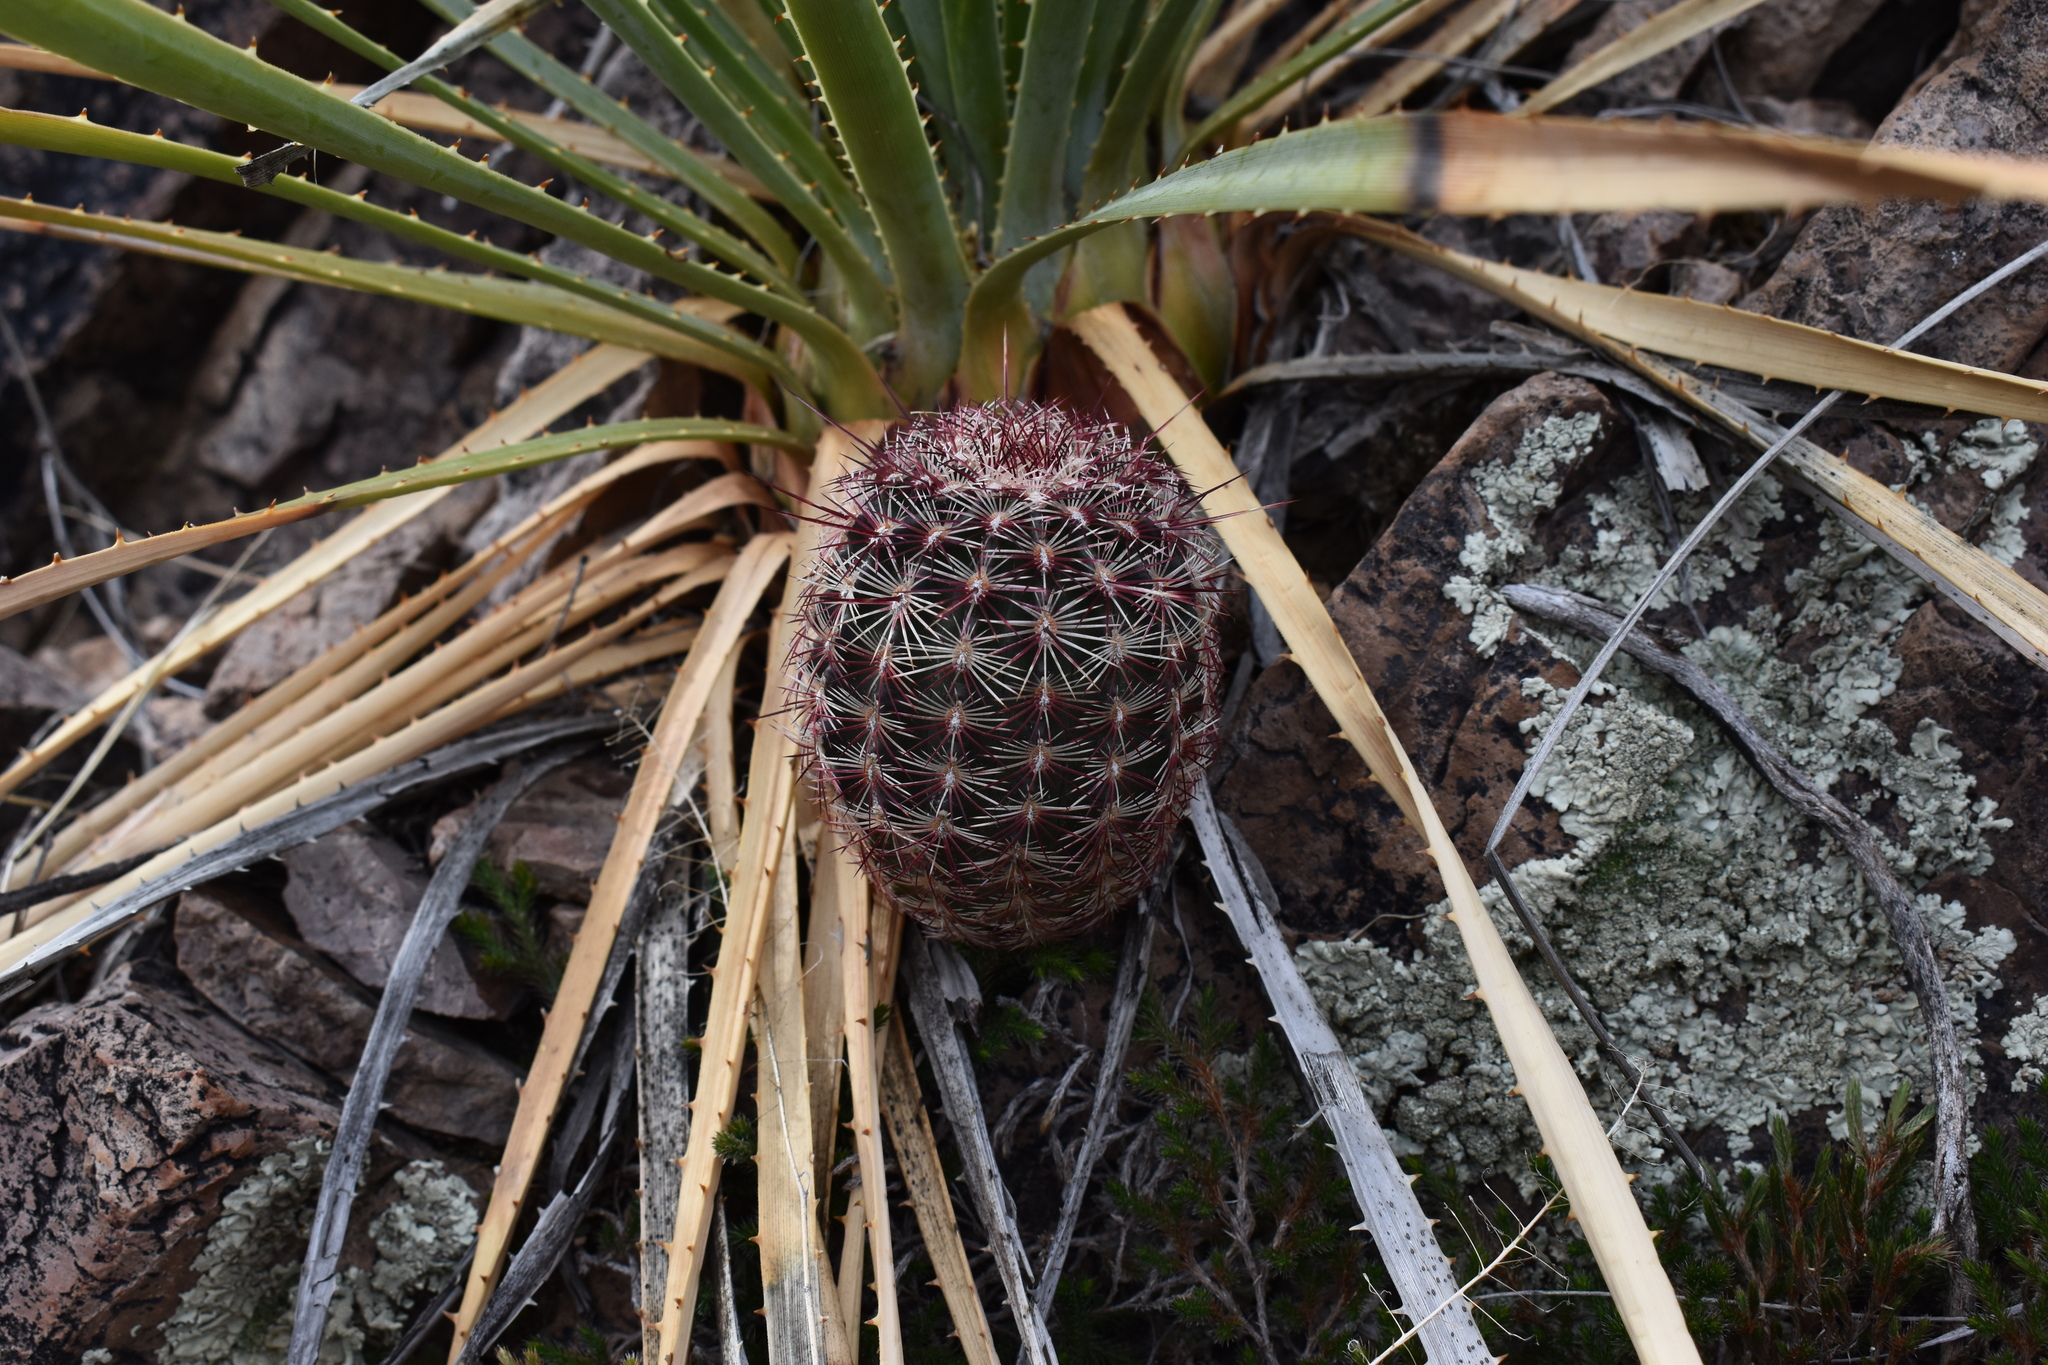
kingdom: Plantae
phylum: Tracheophyta
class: Magnoliopsida
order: Caryophyllales
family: Cactaceae
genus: Echinocereus
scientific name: Echinocereus viridiflorus
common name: Nylon hedgehog cactus
